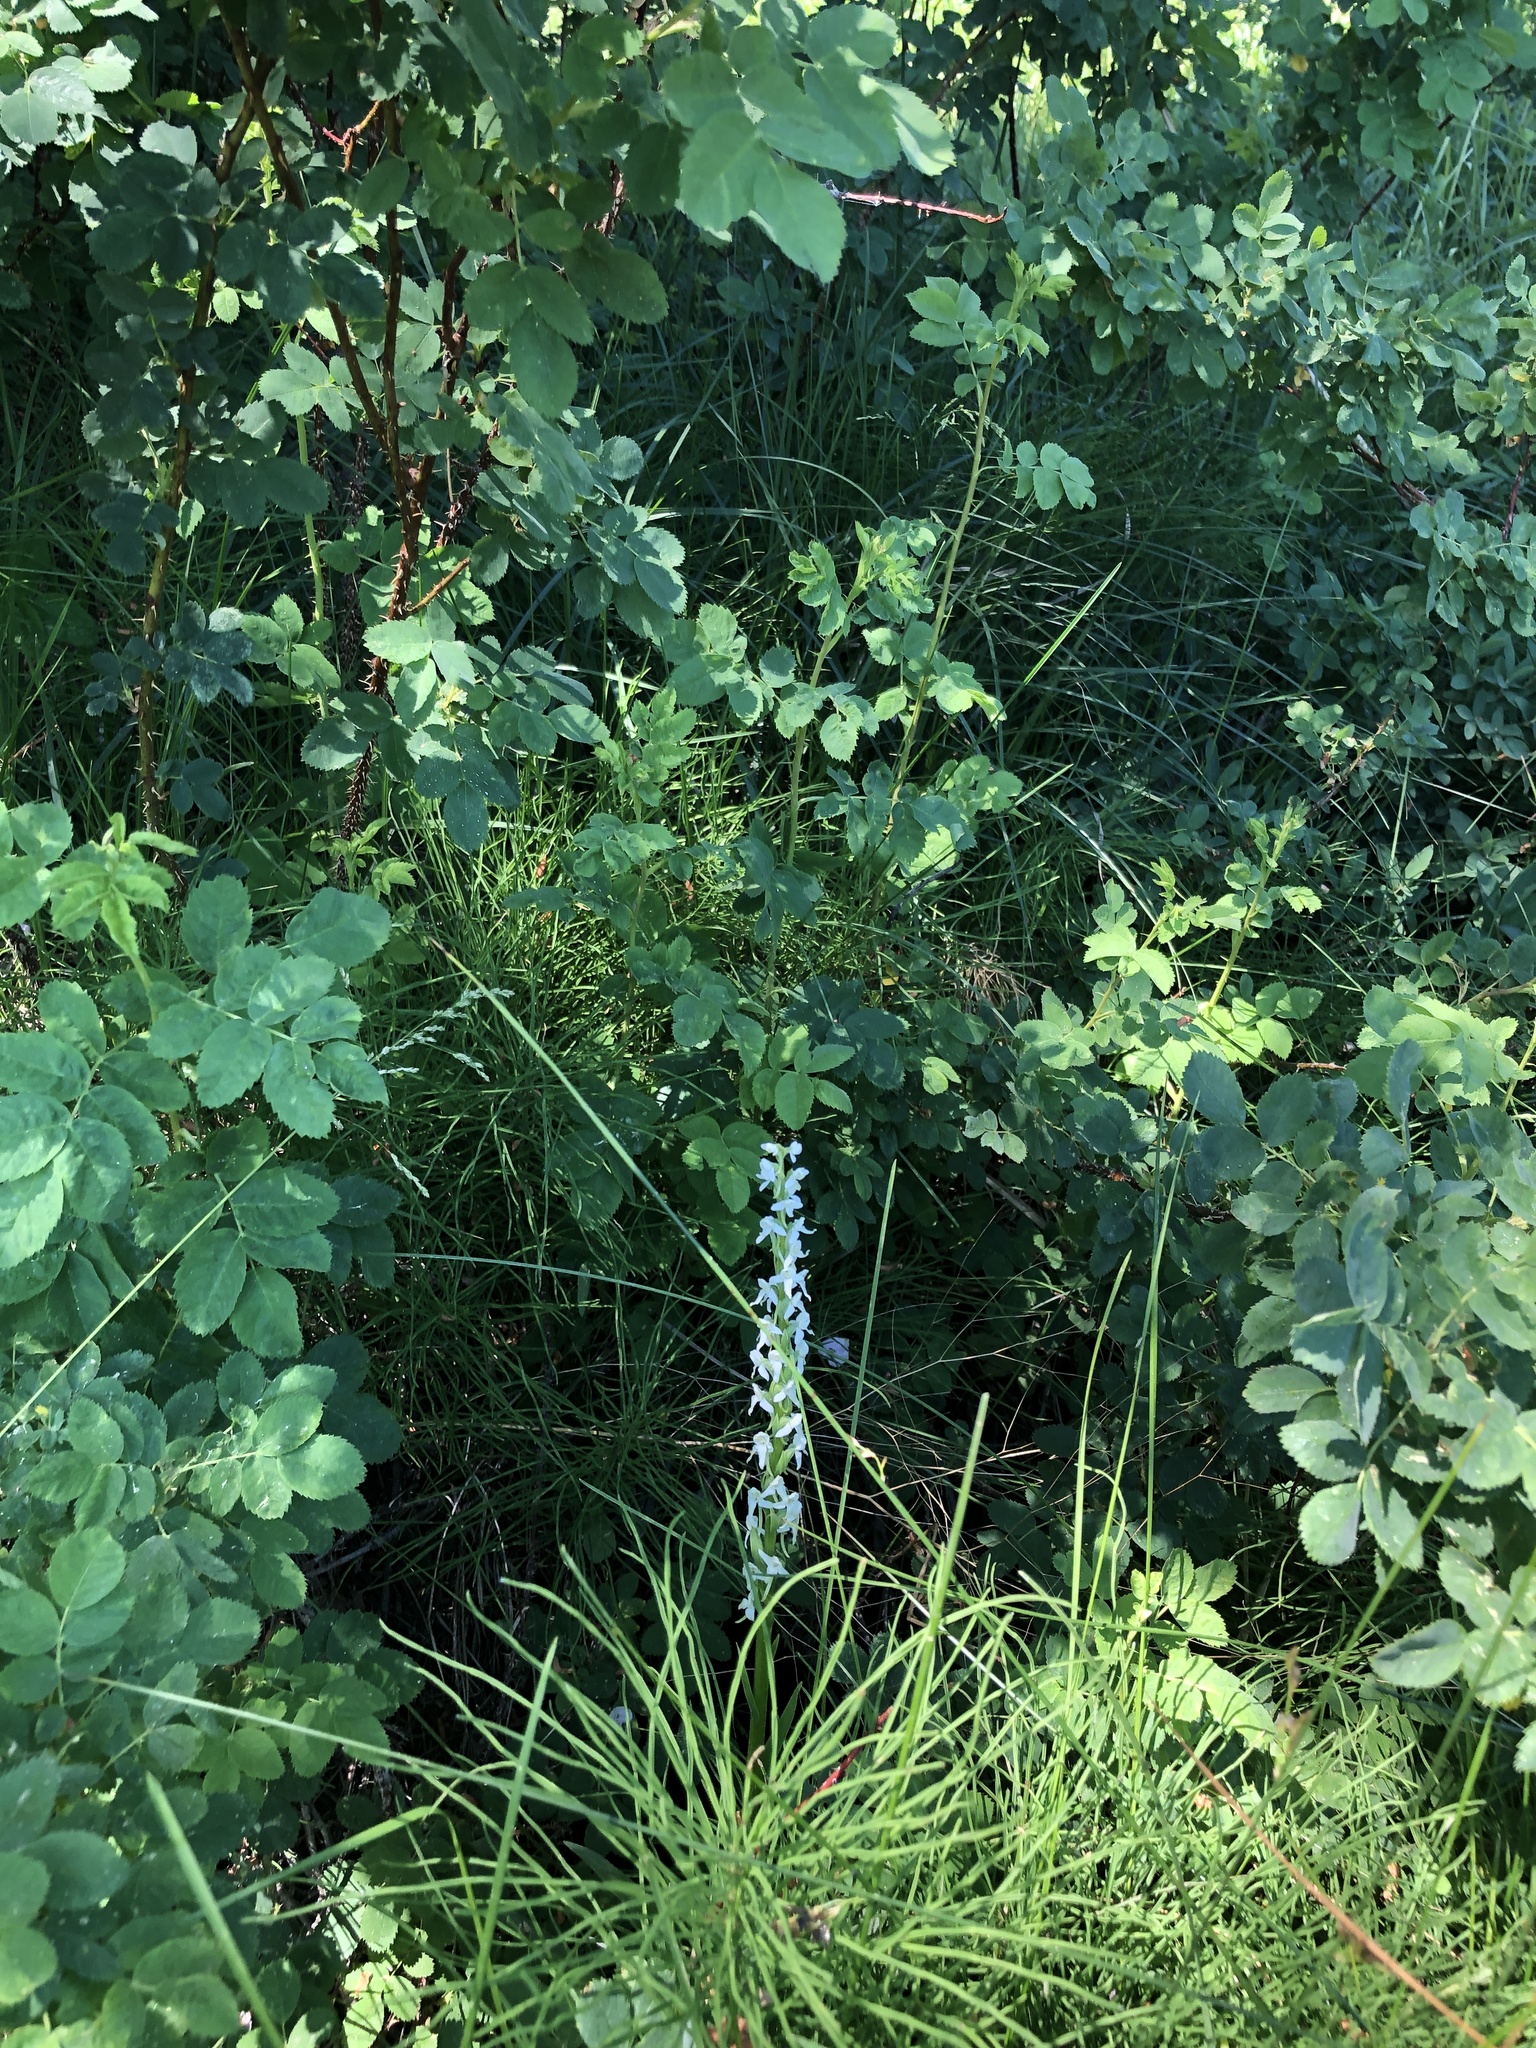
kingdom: Plantae
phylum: Tracheophyta
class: Liliopsida
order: Asparagales
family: Orchidaceae
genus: Platanthera
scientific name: Platanthera dilatata
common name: Bog candles
